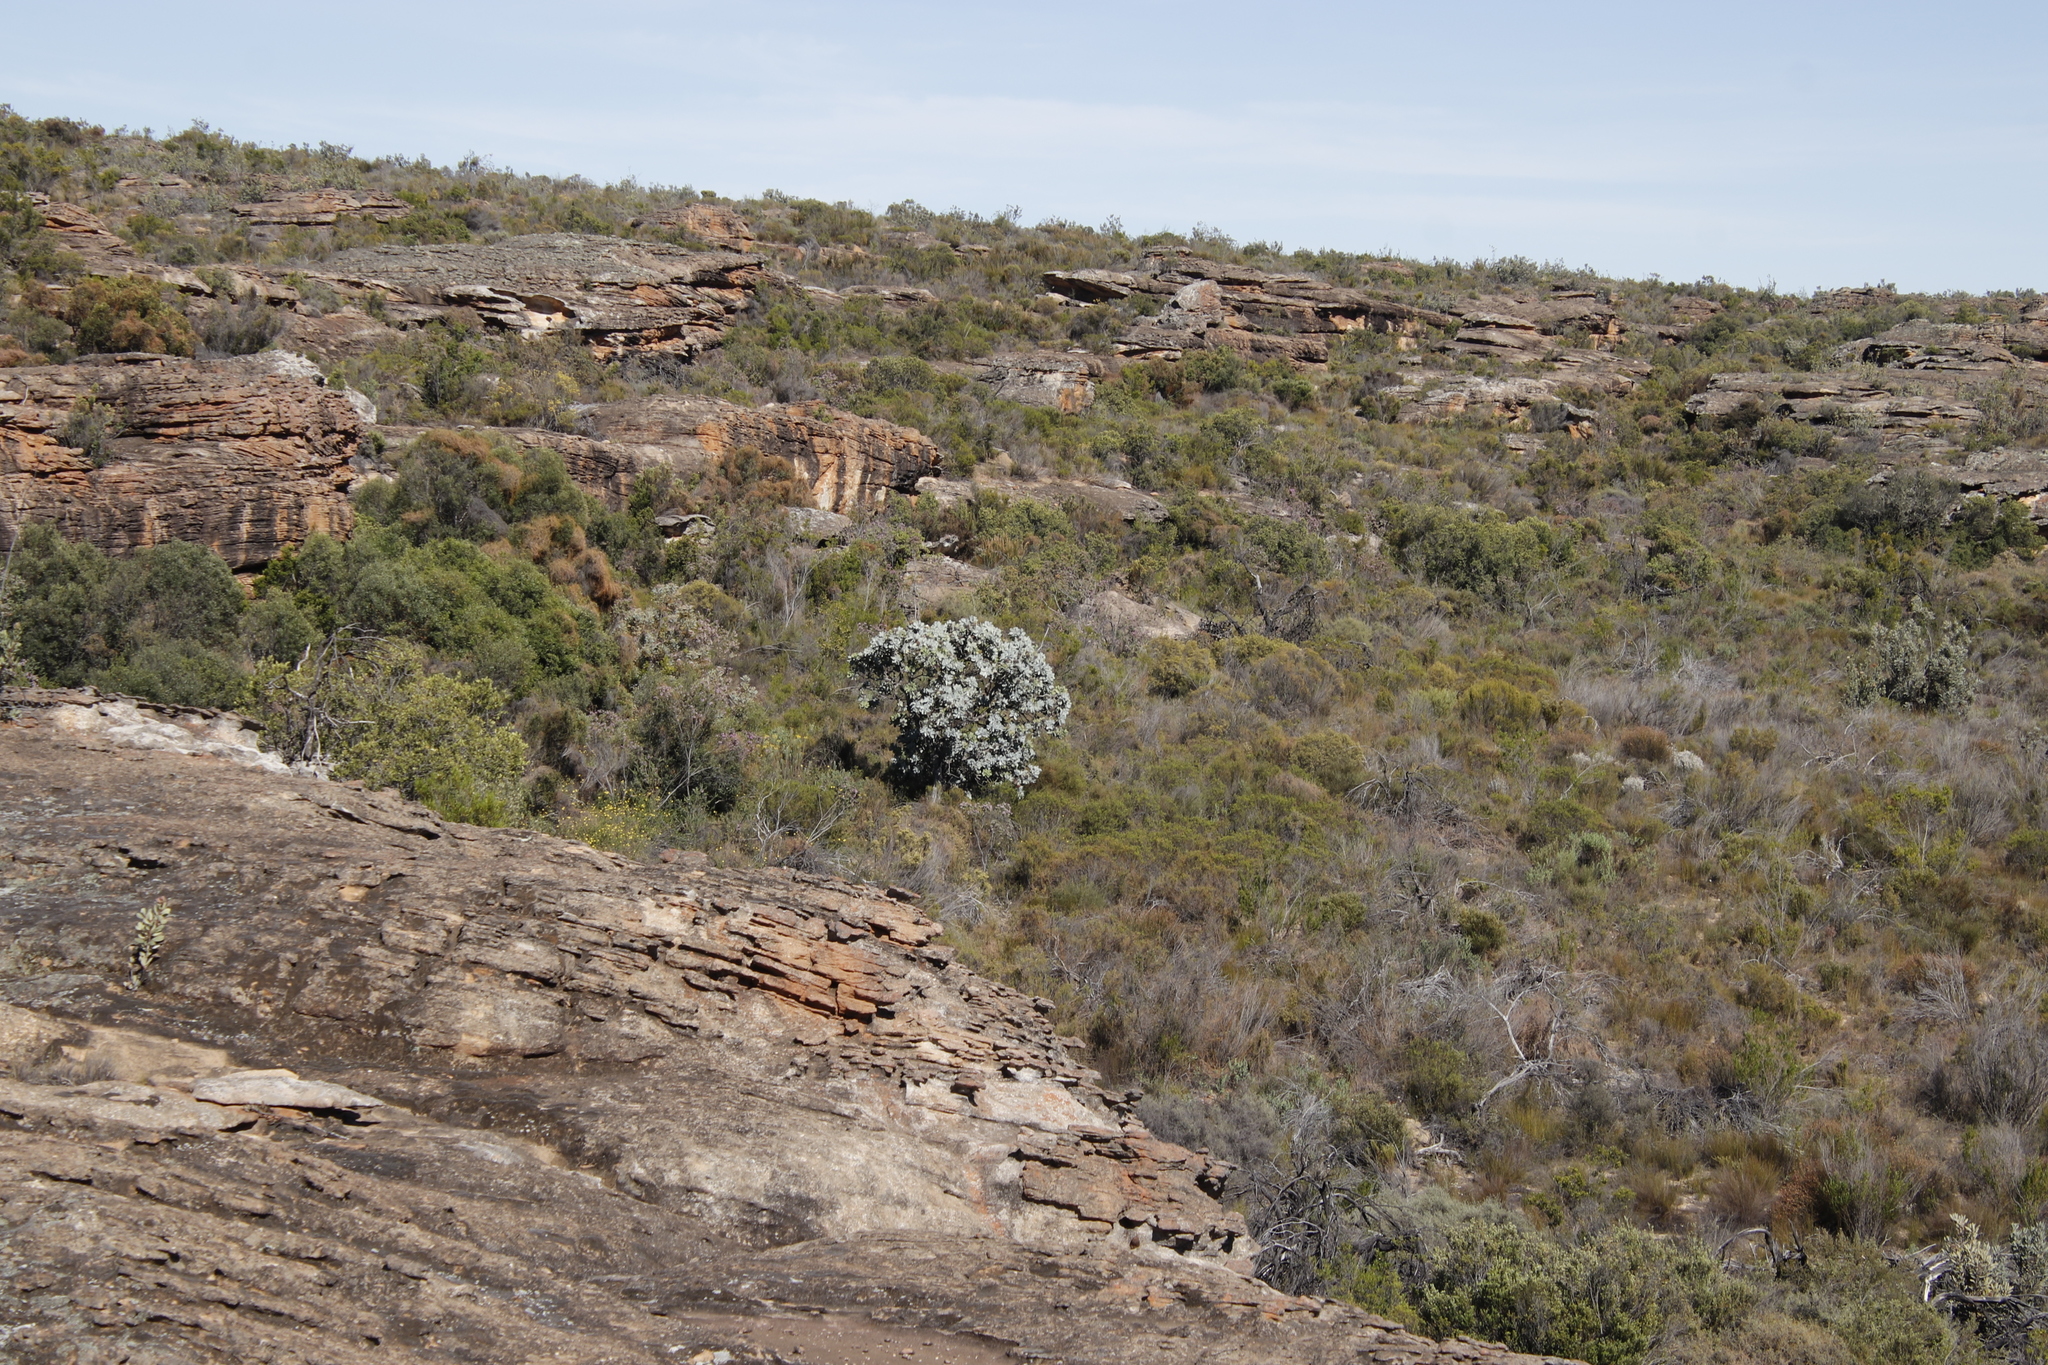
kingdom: Plantae
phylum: Tracheophyta
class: Magnoliopsida
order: Proteales
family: Proteaceae
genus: Protea
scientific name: Protea nitida
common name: Tree protea
